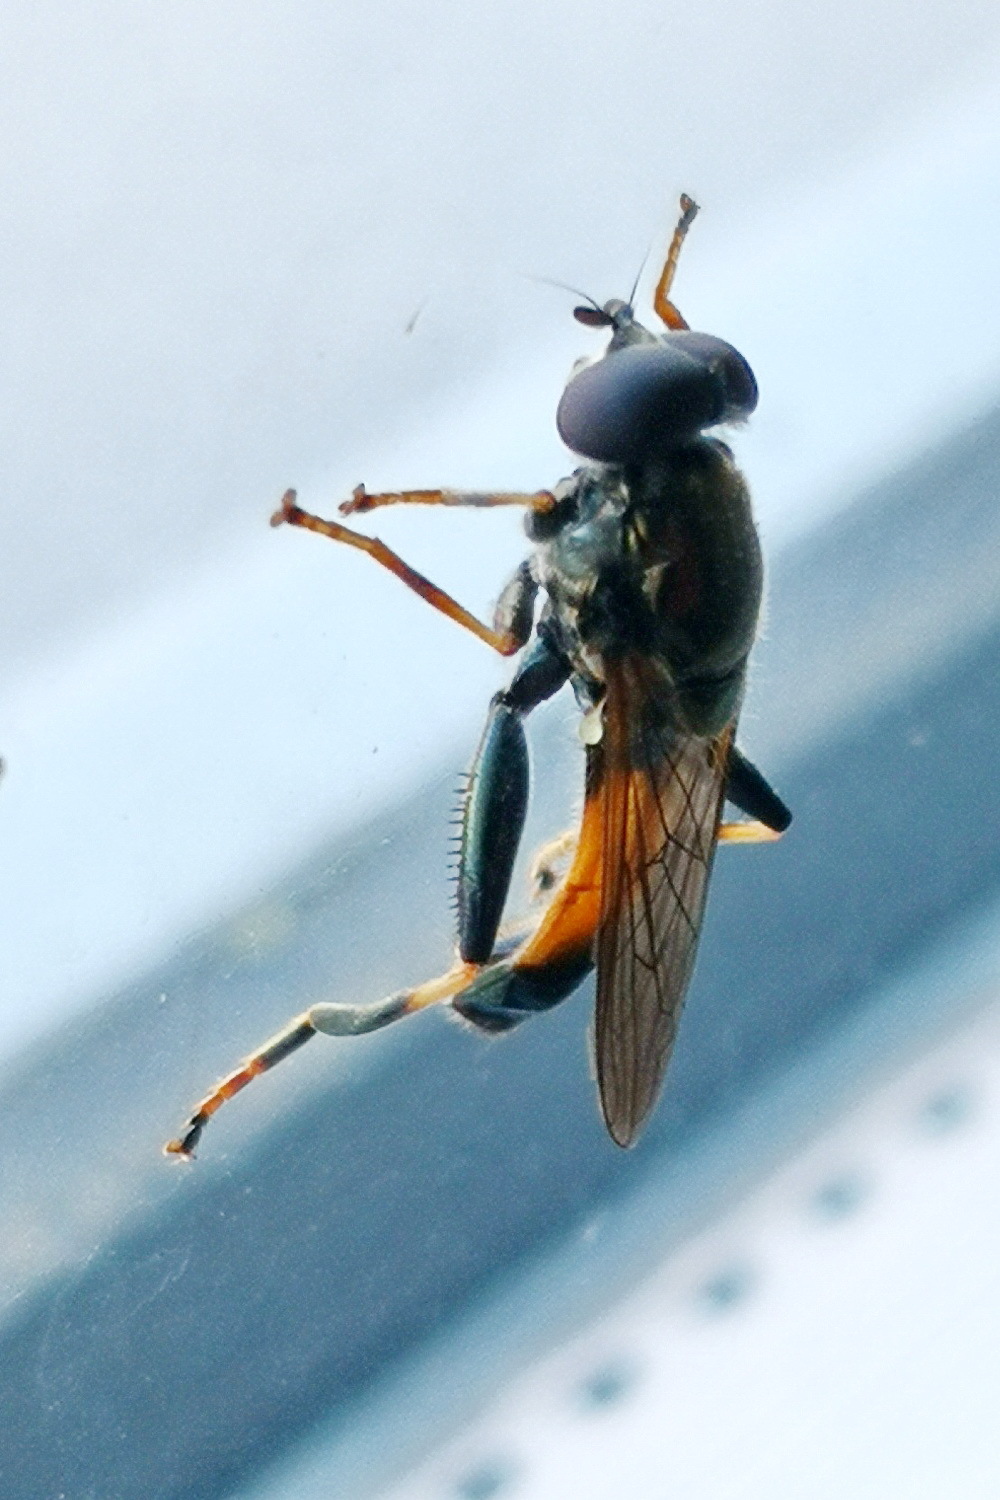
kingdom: Animalia
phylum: Arthropoda
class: Insecta
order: Diptera
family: Syrphidae
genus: Xylota
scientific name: Xylota segnis
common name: Brown-toed forest fly
